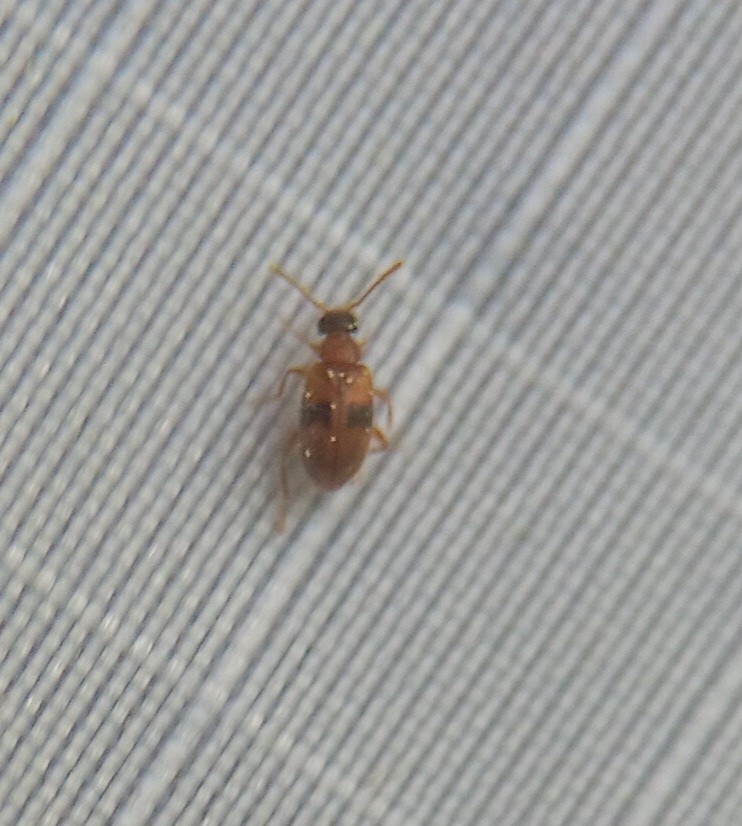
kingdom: Animalia
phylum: Arthropoda
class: Insecta
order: Coleoptera
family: Aderidae
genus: Zonantes
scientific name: Zonantes subfasciatus
